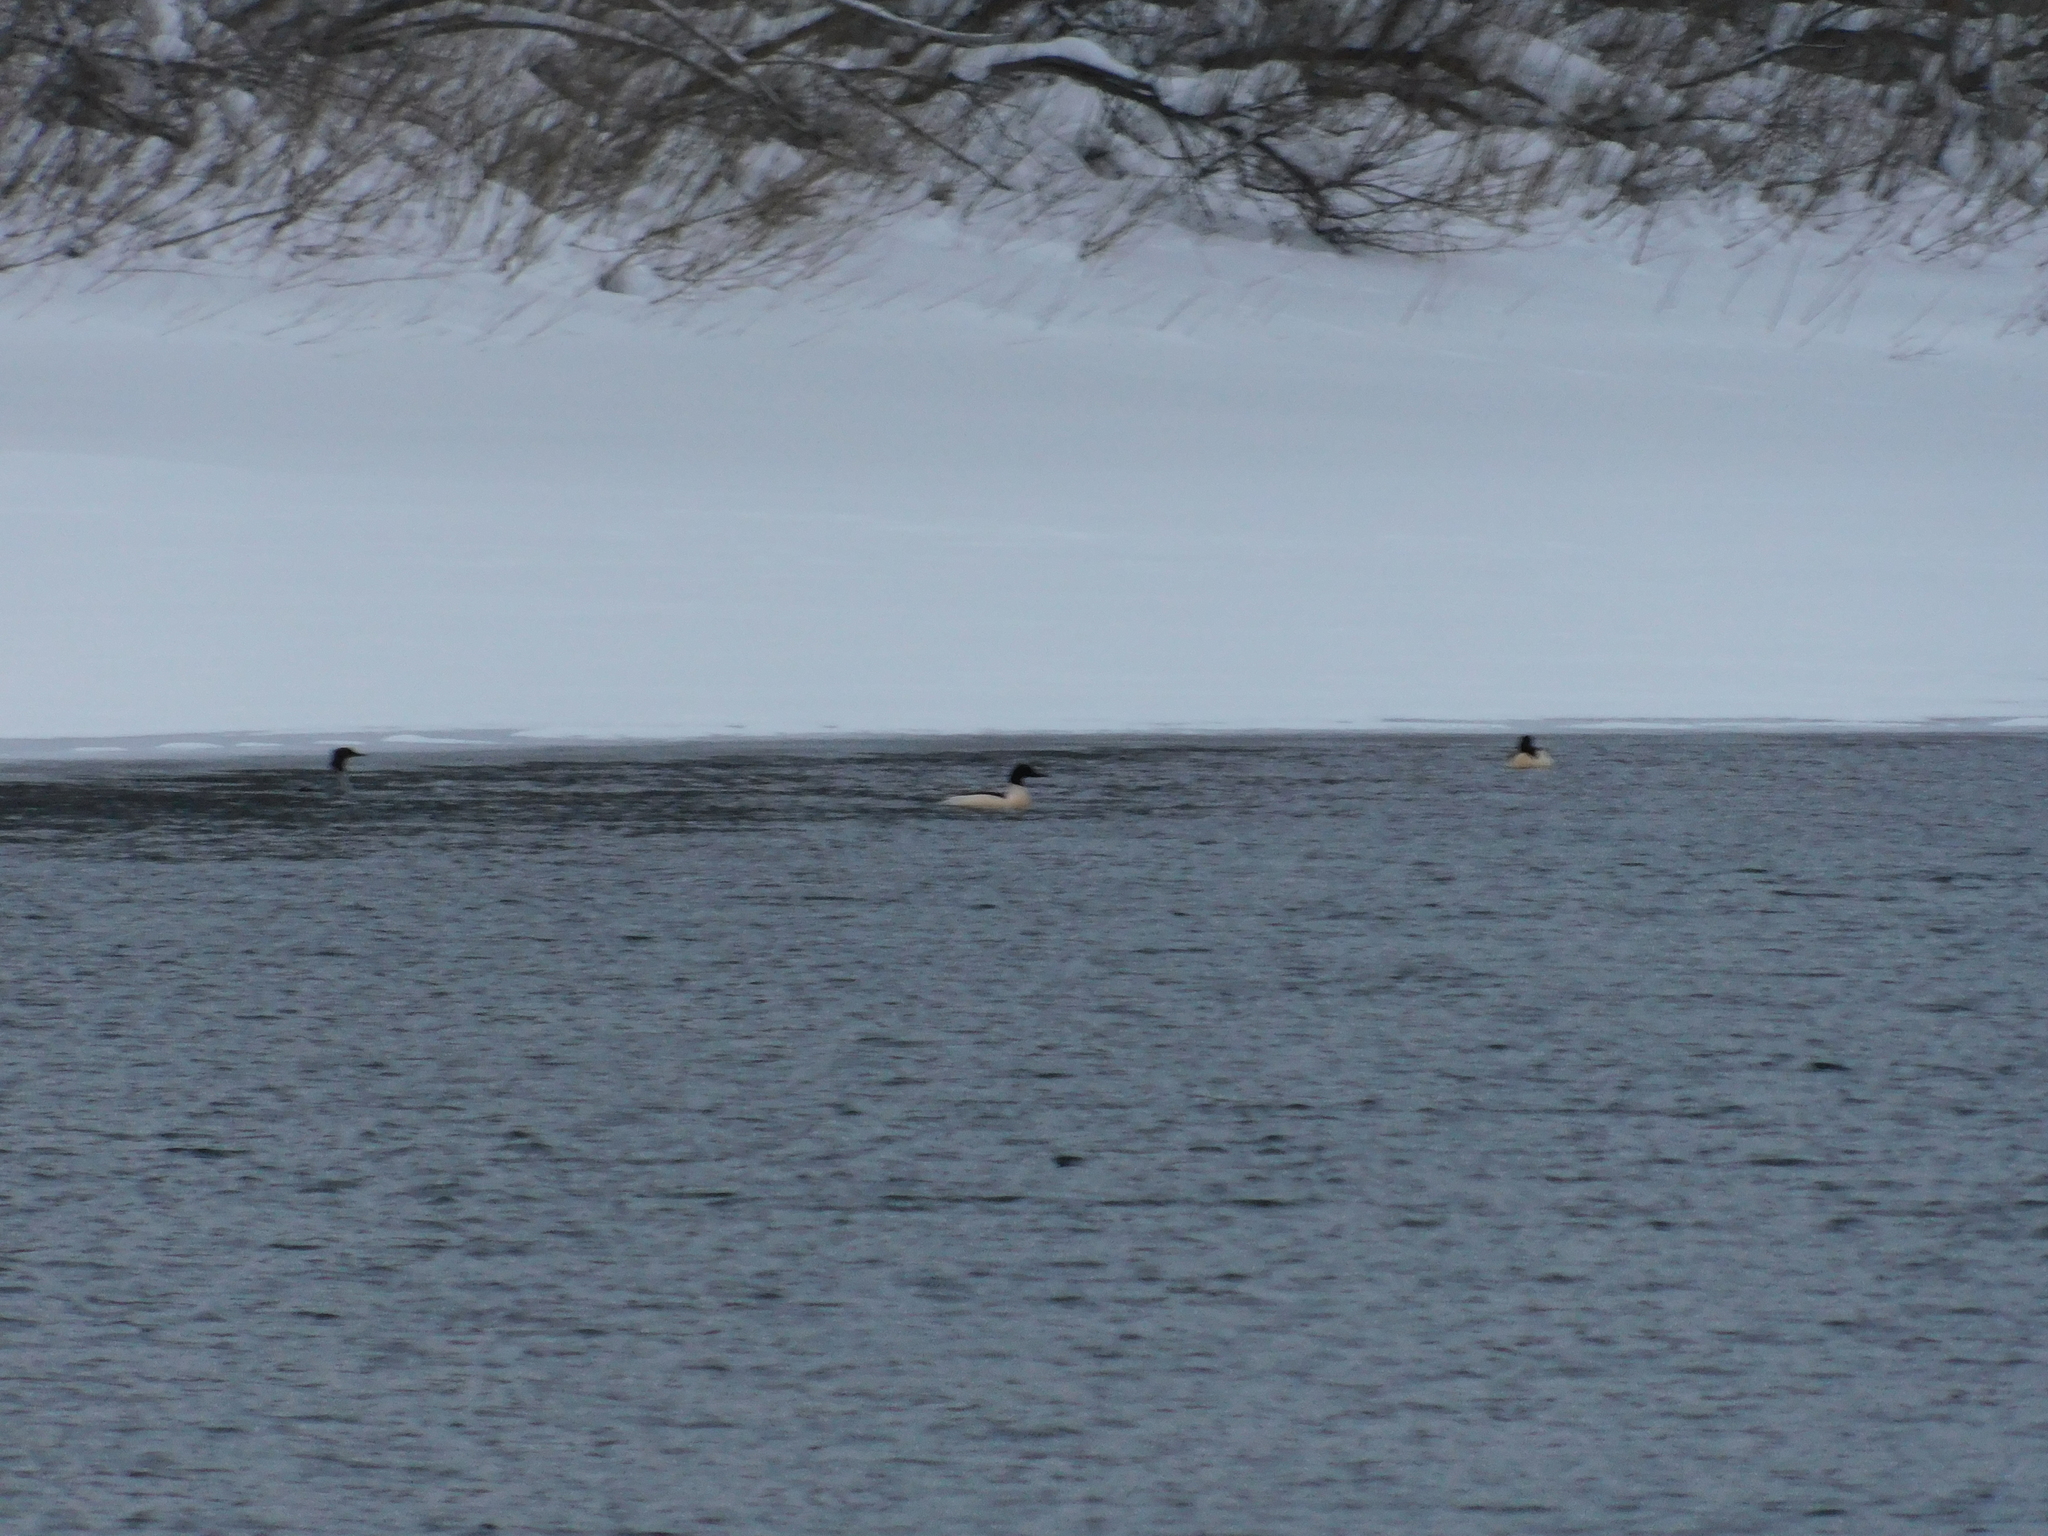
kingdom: Animalia
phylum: Chordata
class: Aves
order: Anseriformes
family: Anatidae
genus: Mergus
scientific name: Mergus merganser
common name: Common merganser
